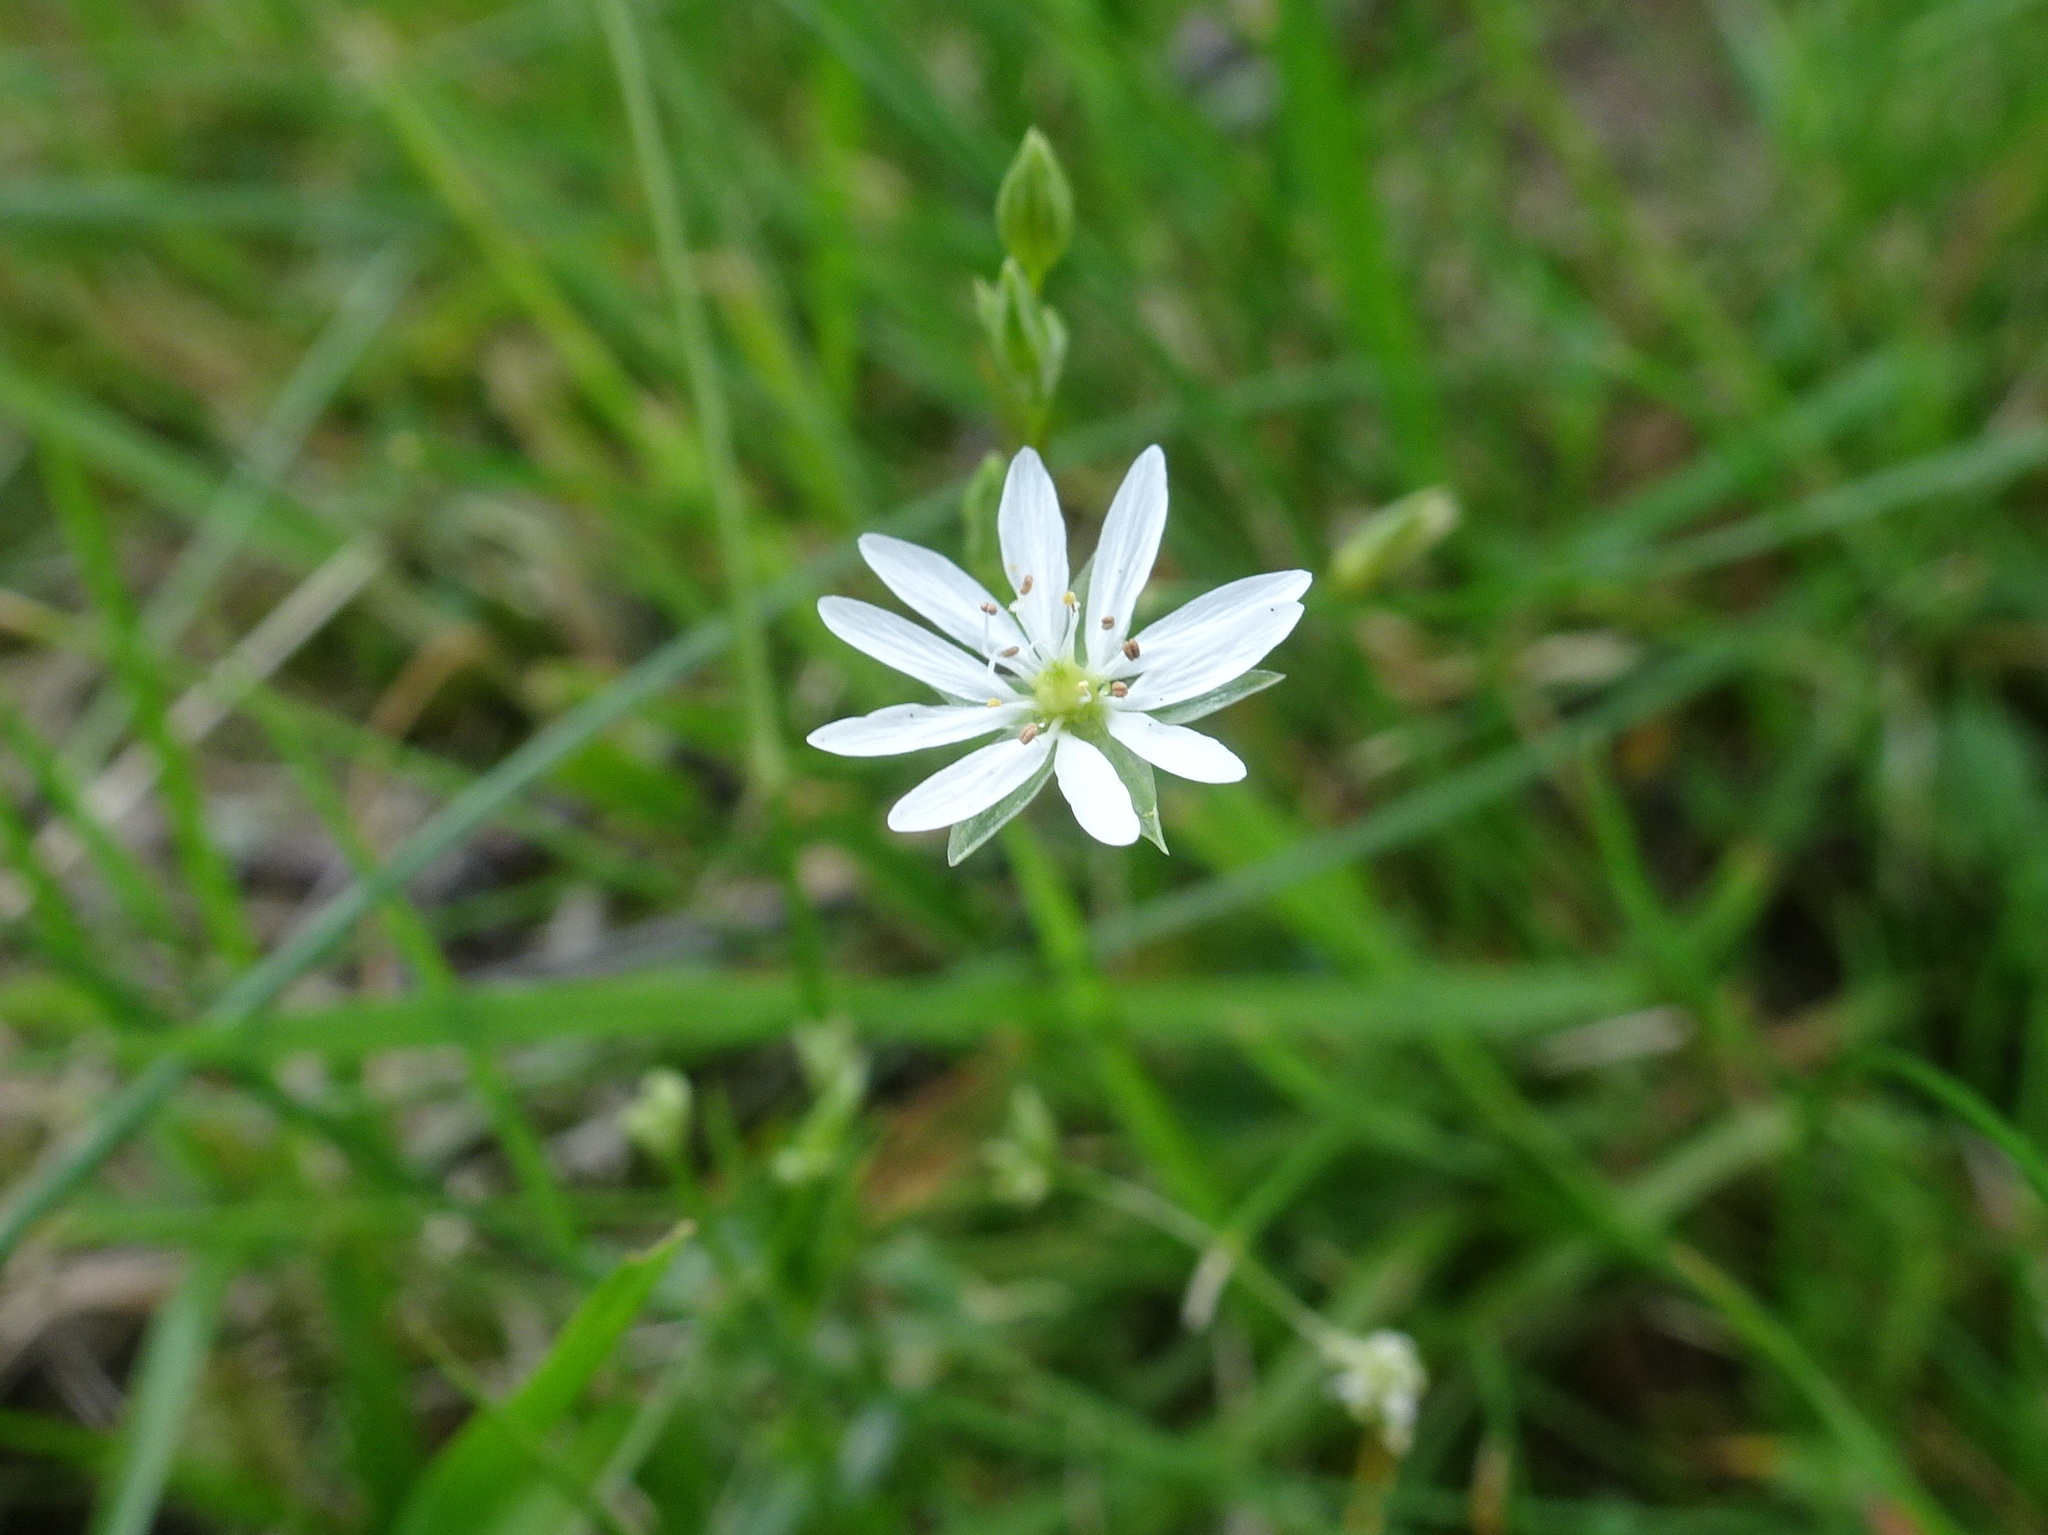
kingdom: Plantae
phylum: Tracheophyta
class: Magnoliopsida
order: Caryophyllales
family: Caryophyllaceae
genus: Stellaria
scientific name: Stellaria graminea
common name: Grass-like starwort
